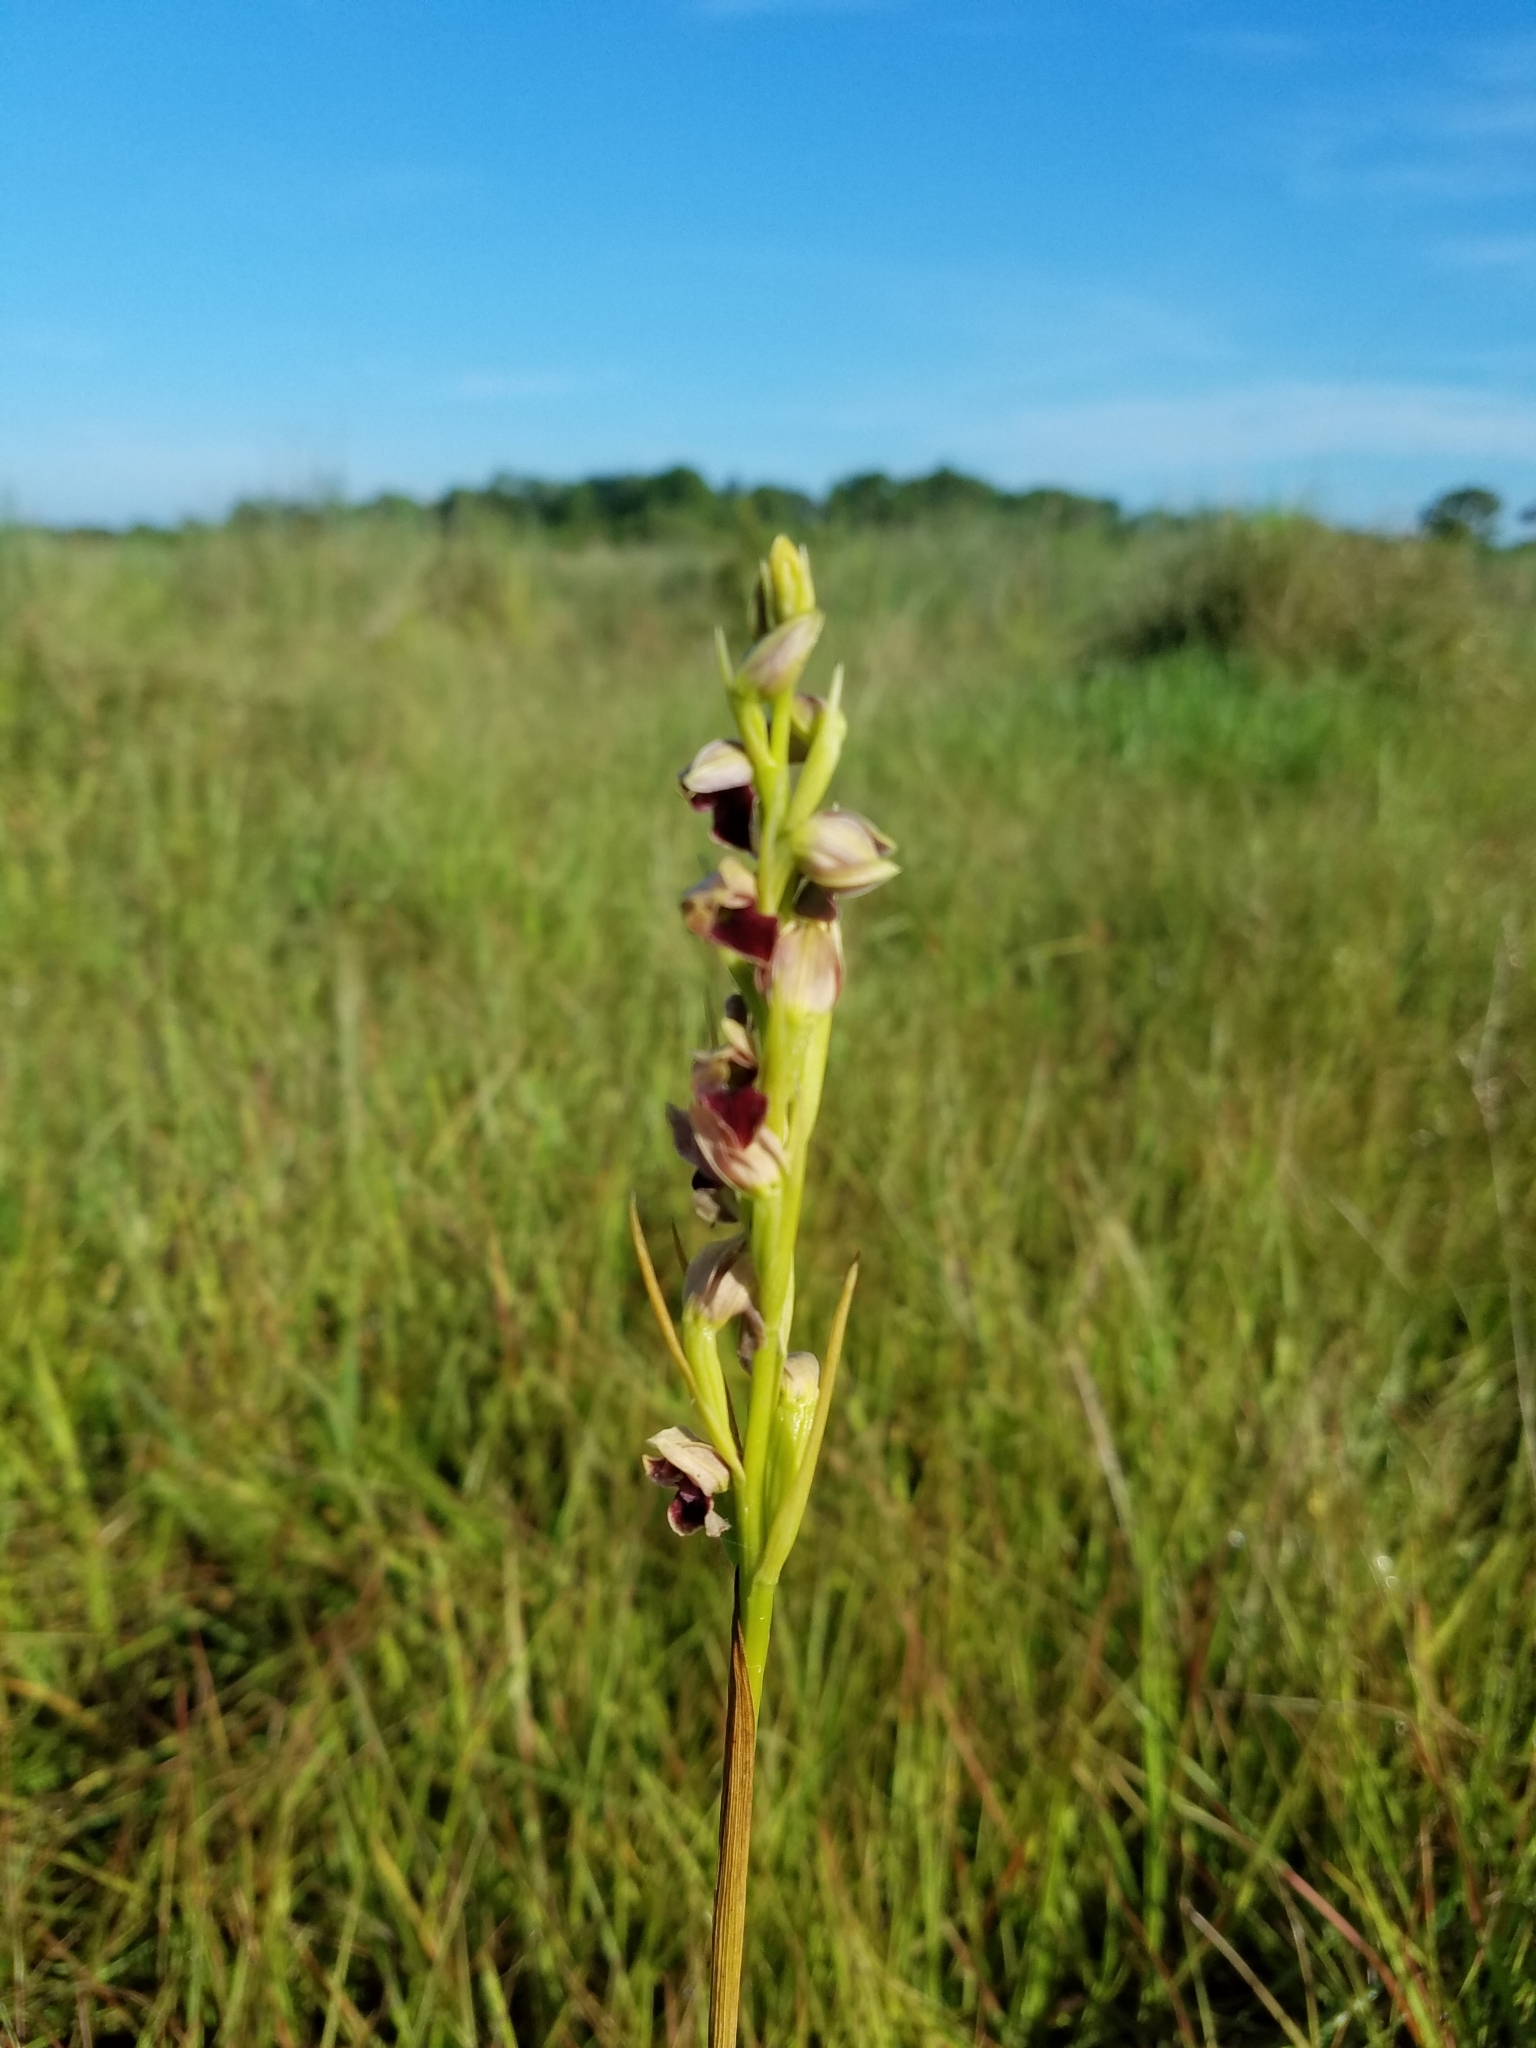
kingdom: Plantae
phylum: Tracheophyta
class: Liliopsida
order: Asparagales
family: Orchidaceae
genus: Eulophia
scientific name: Eulophia ecristata
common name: Giant orchid
